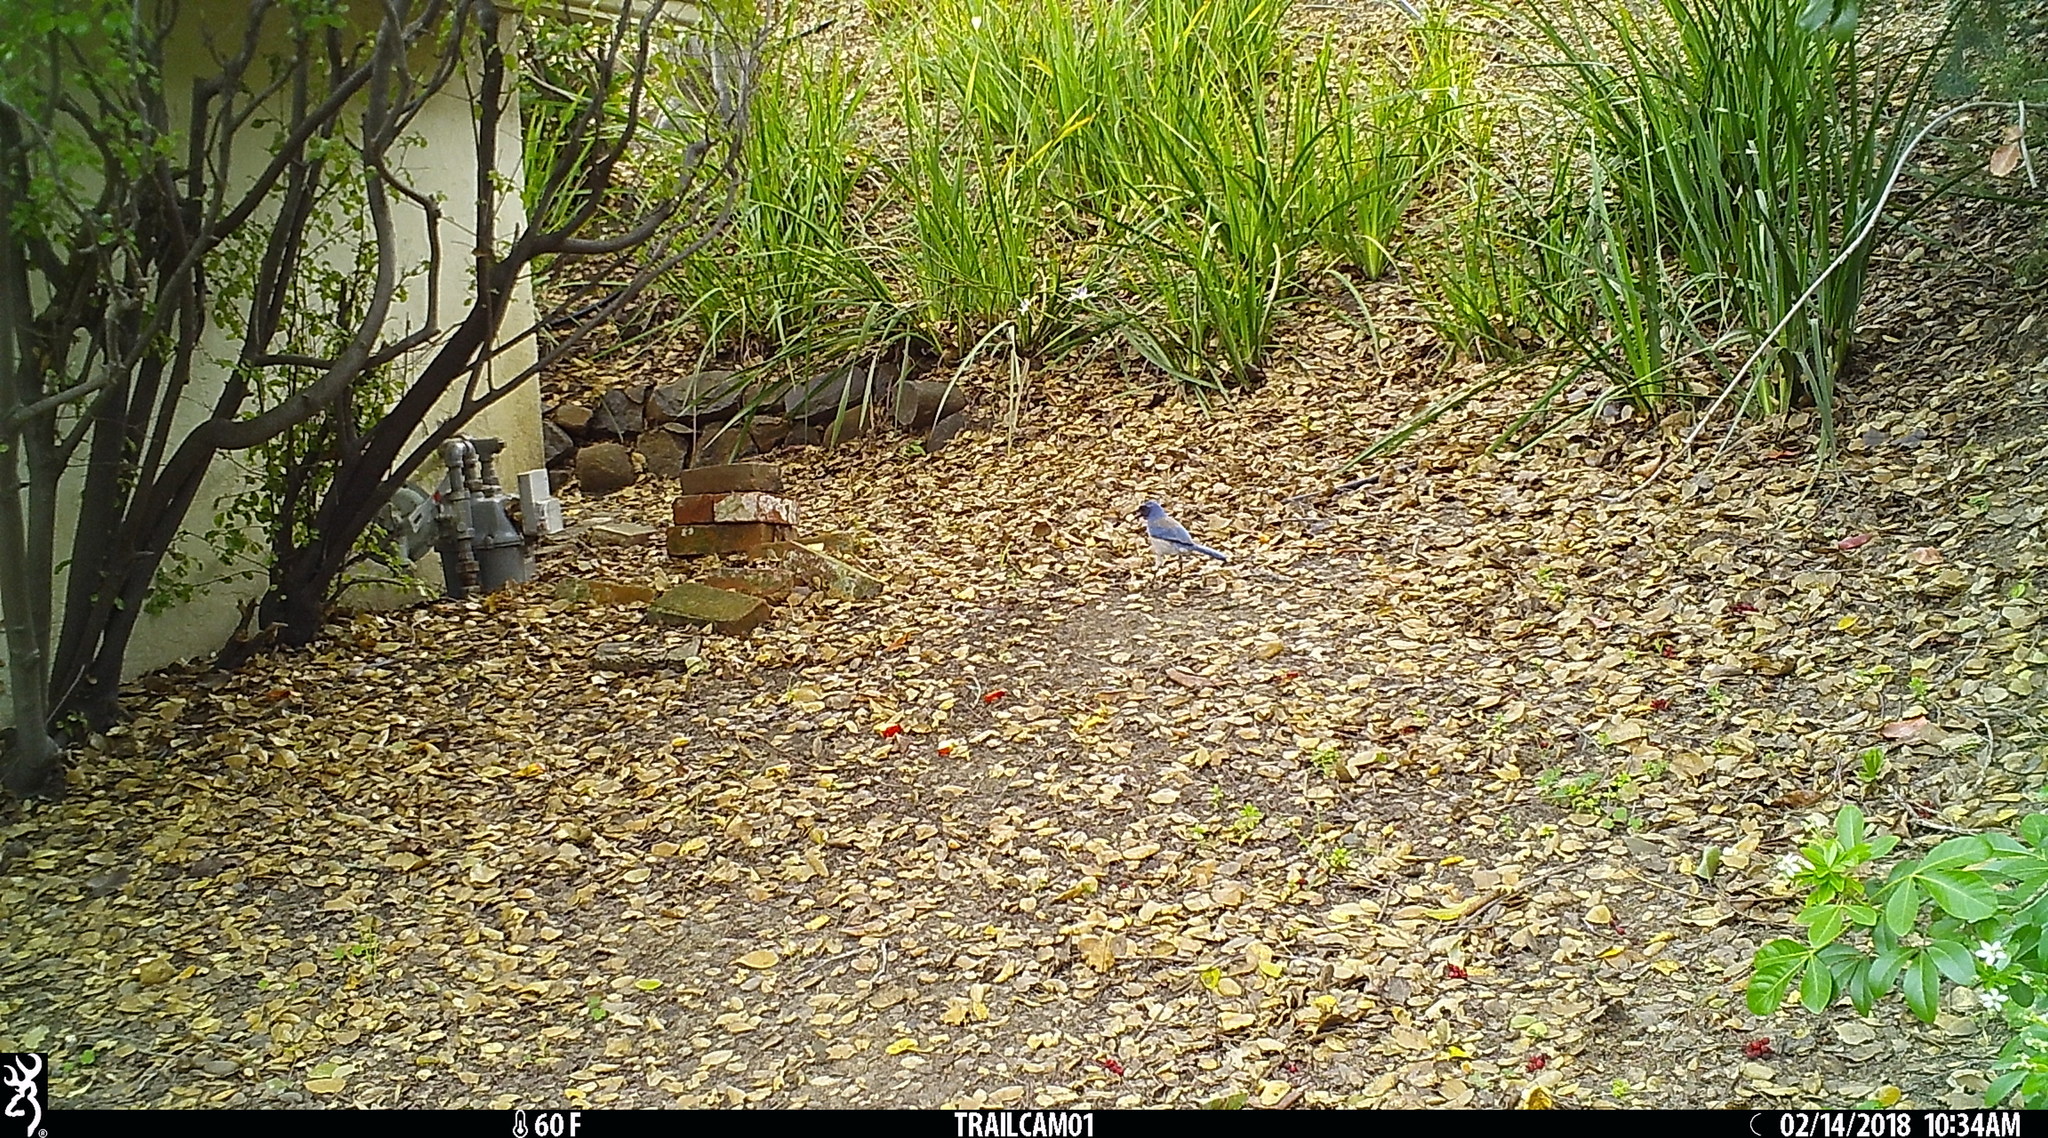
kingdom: Animalia
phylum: Chordata
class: Aves
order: Passeriformes
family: Corvidae
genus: Aphelocoma
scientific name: Aphelocoma californica
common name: California scrub-jay
